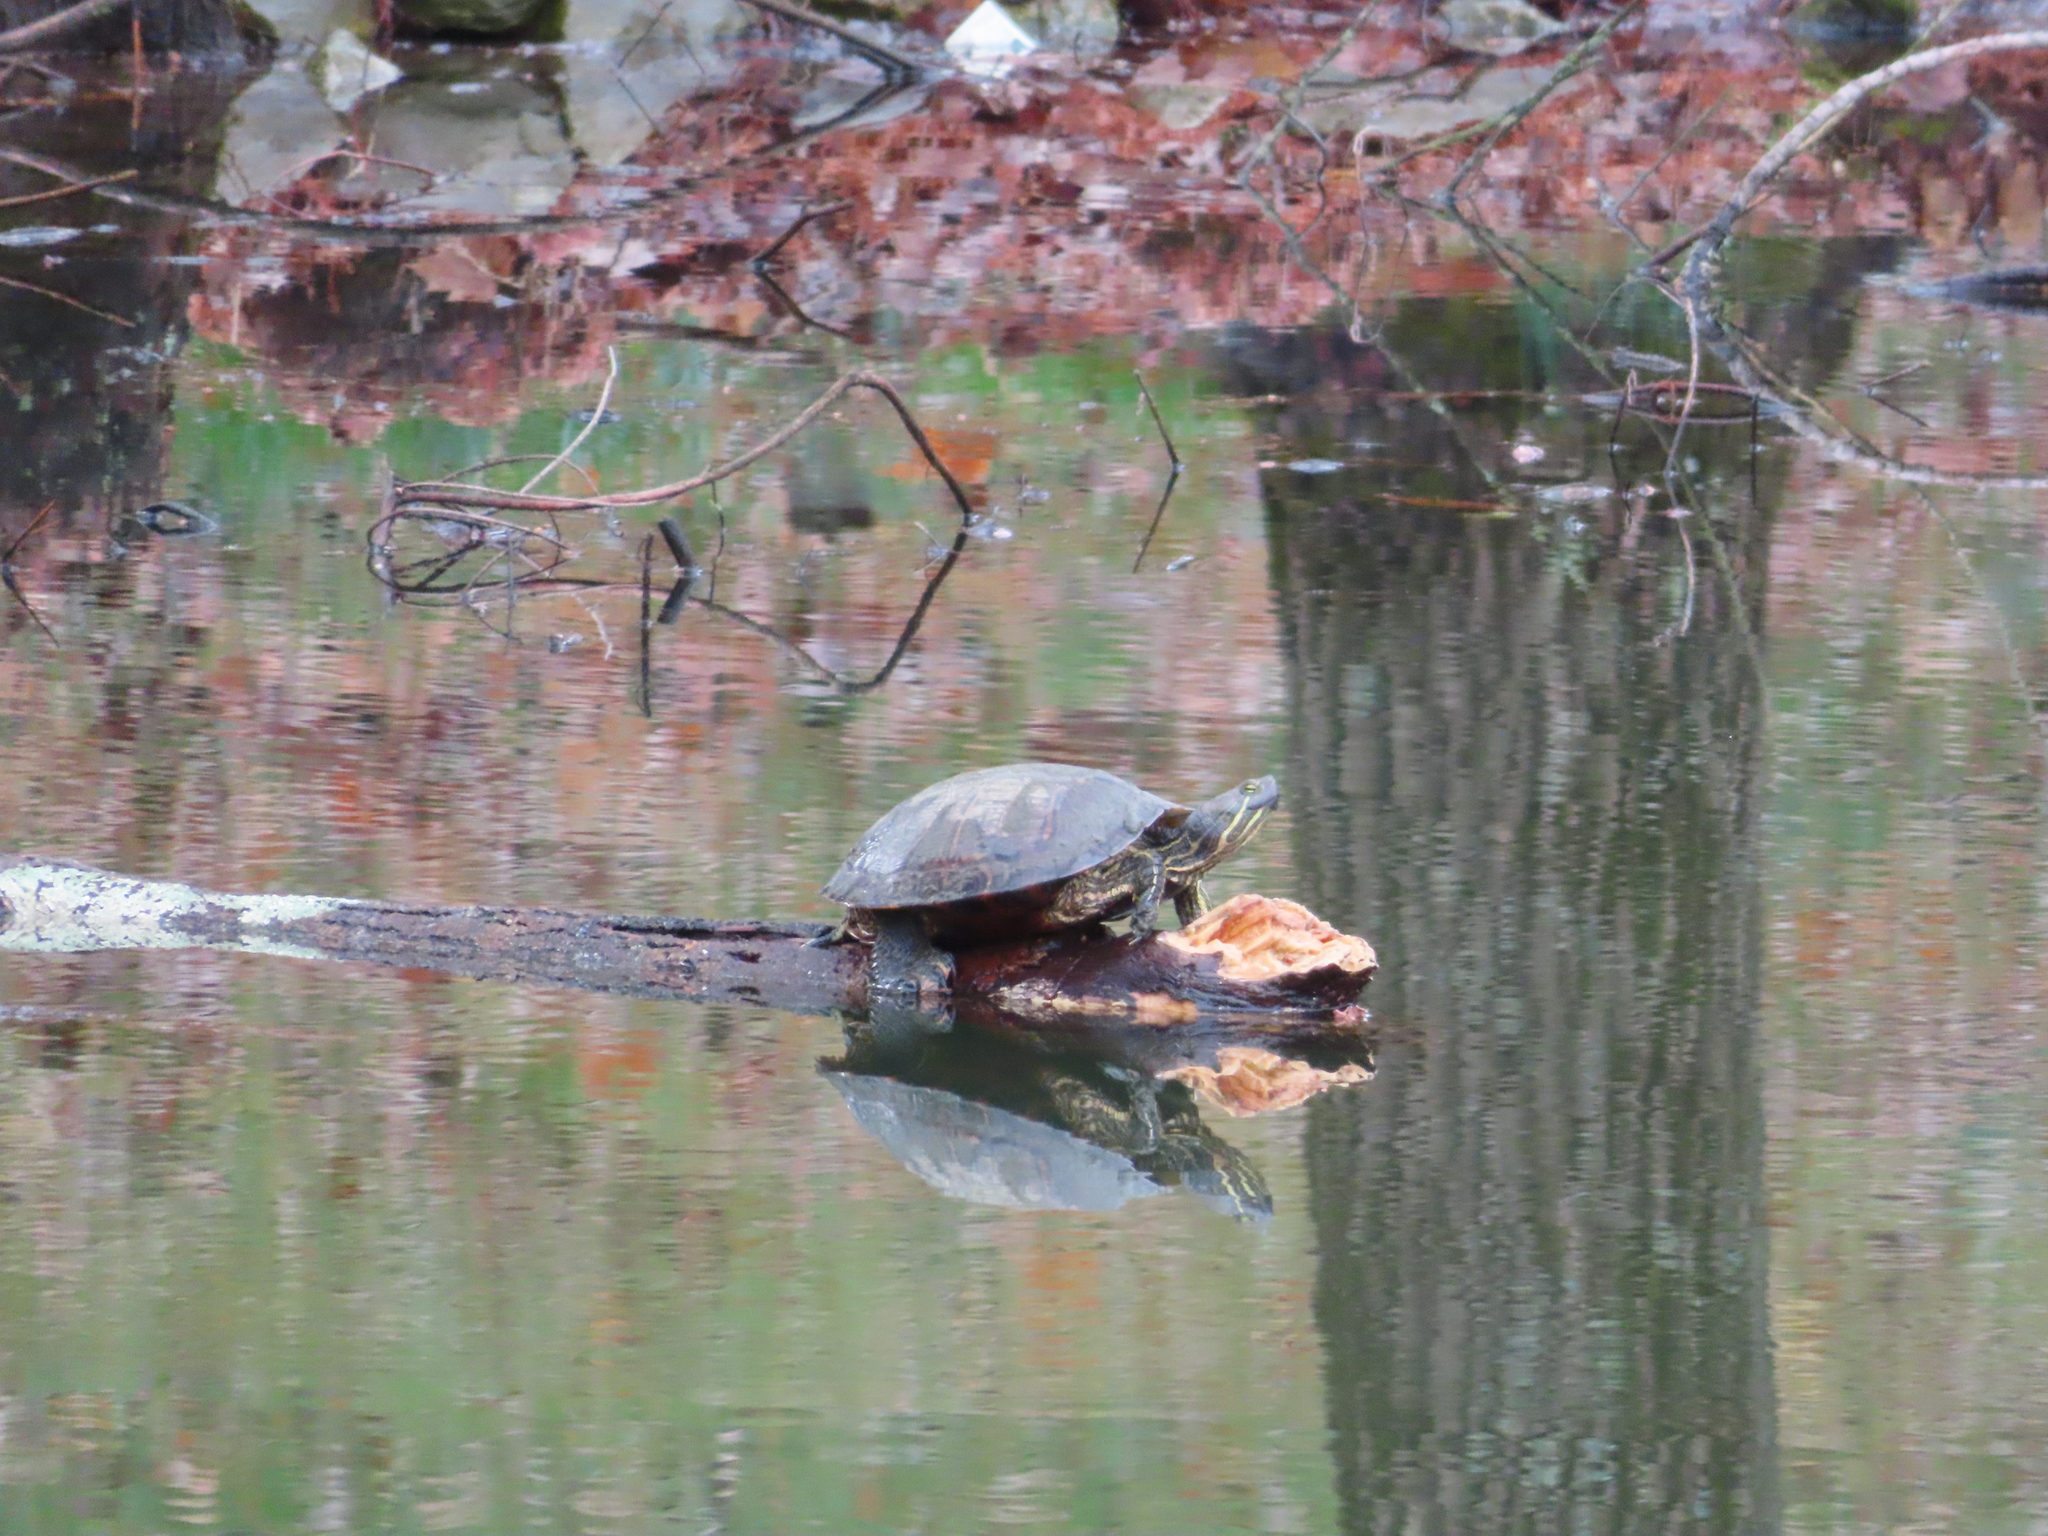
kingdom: Animalia
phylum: Chordata
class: Testudines
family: Emydidae
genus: Trachemys
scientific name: Trachemys scripta
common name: Slider
